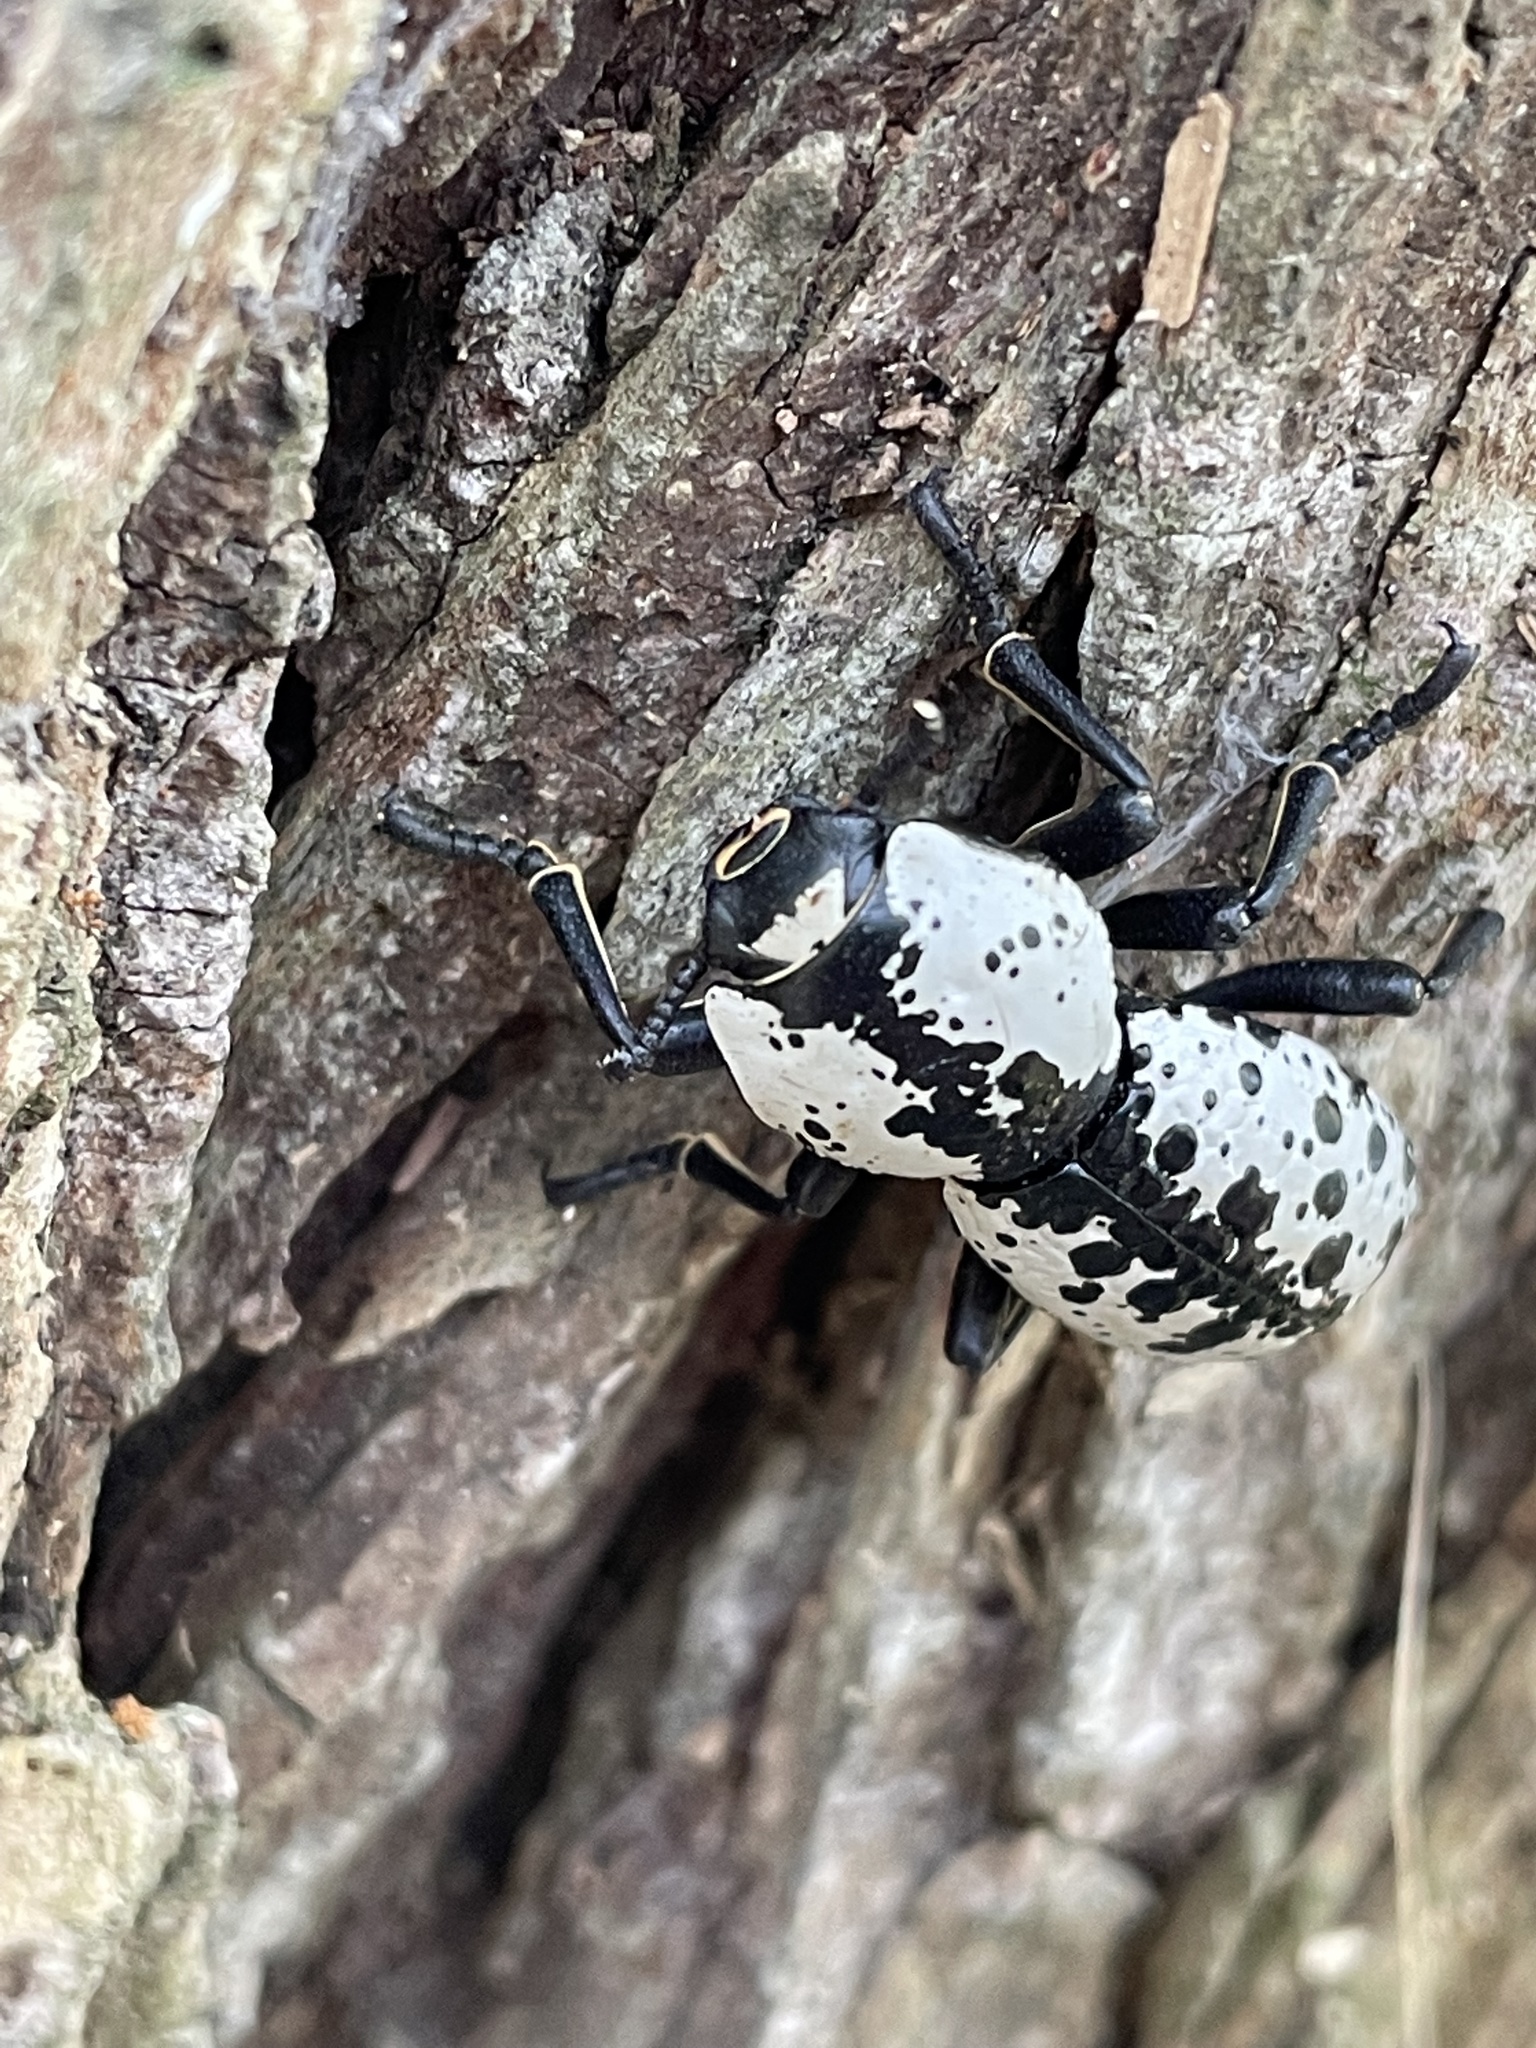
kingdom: Animalia
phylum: Arthropoda
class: Insecta
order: Coleoptera
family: Zopheridae
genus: Zopherus
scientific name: Zopherus nodulosus
